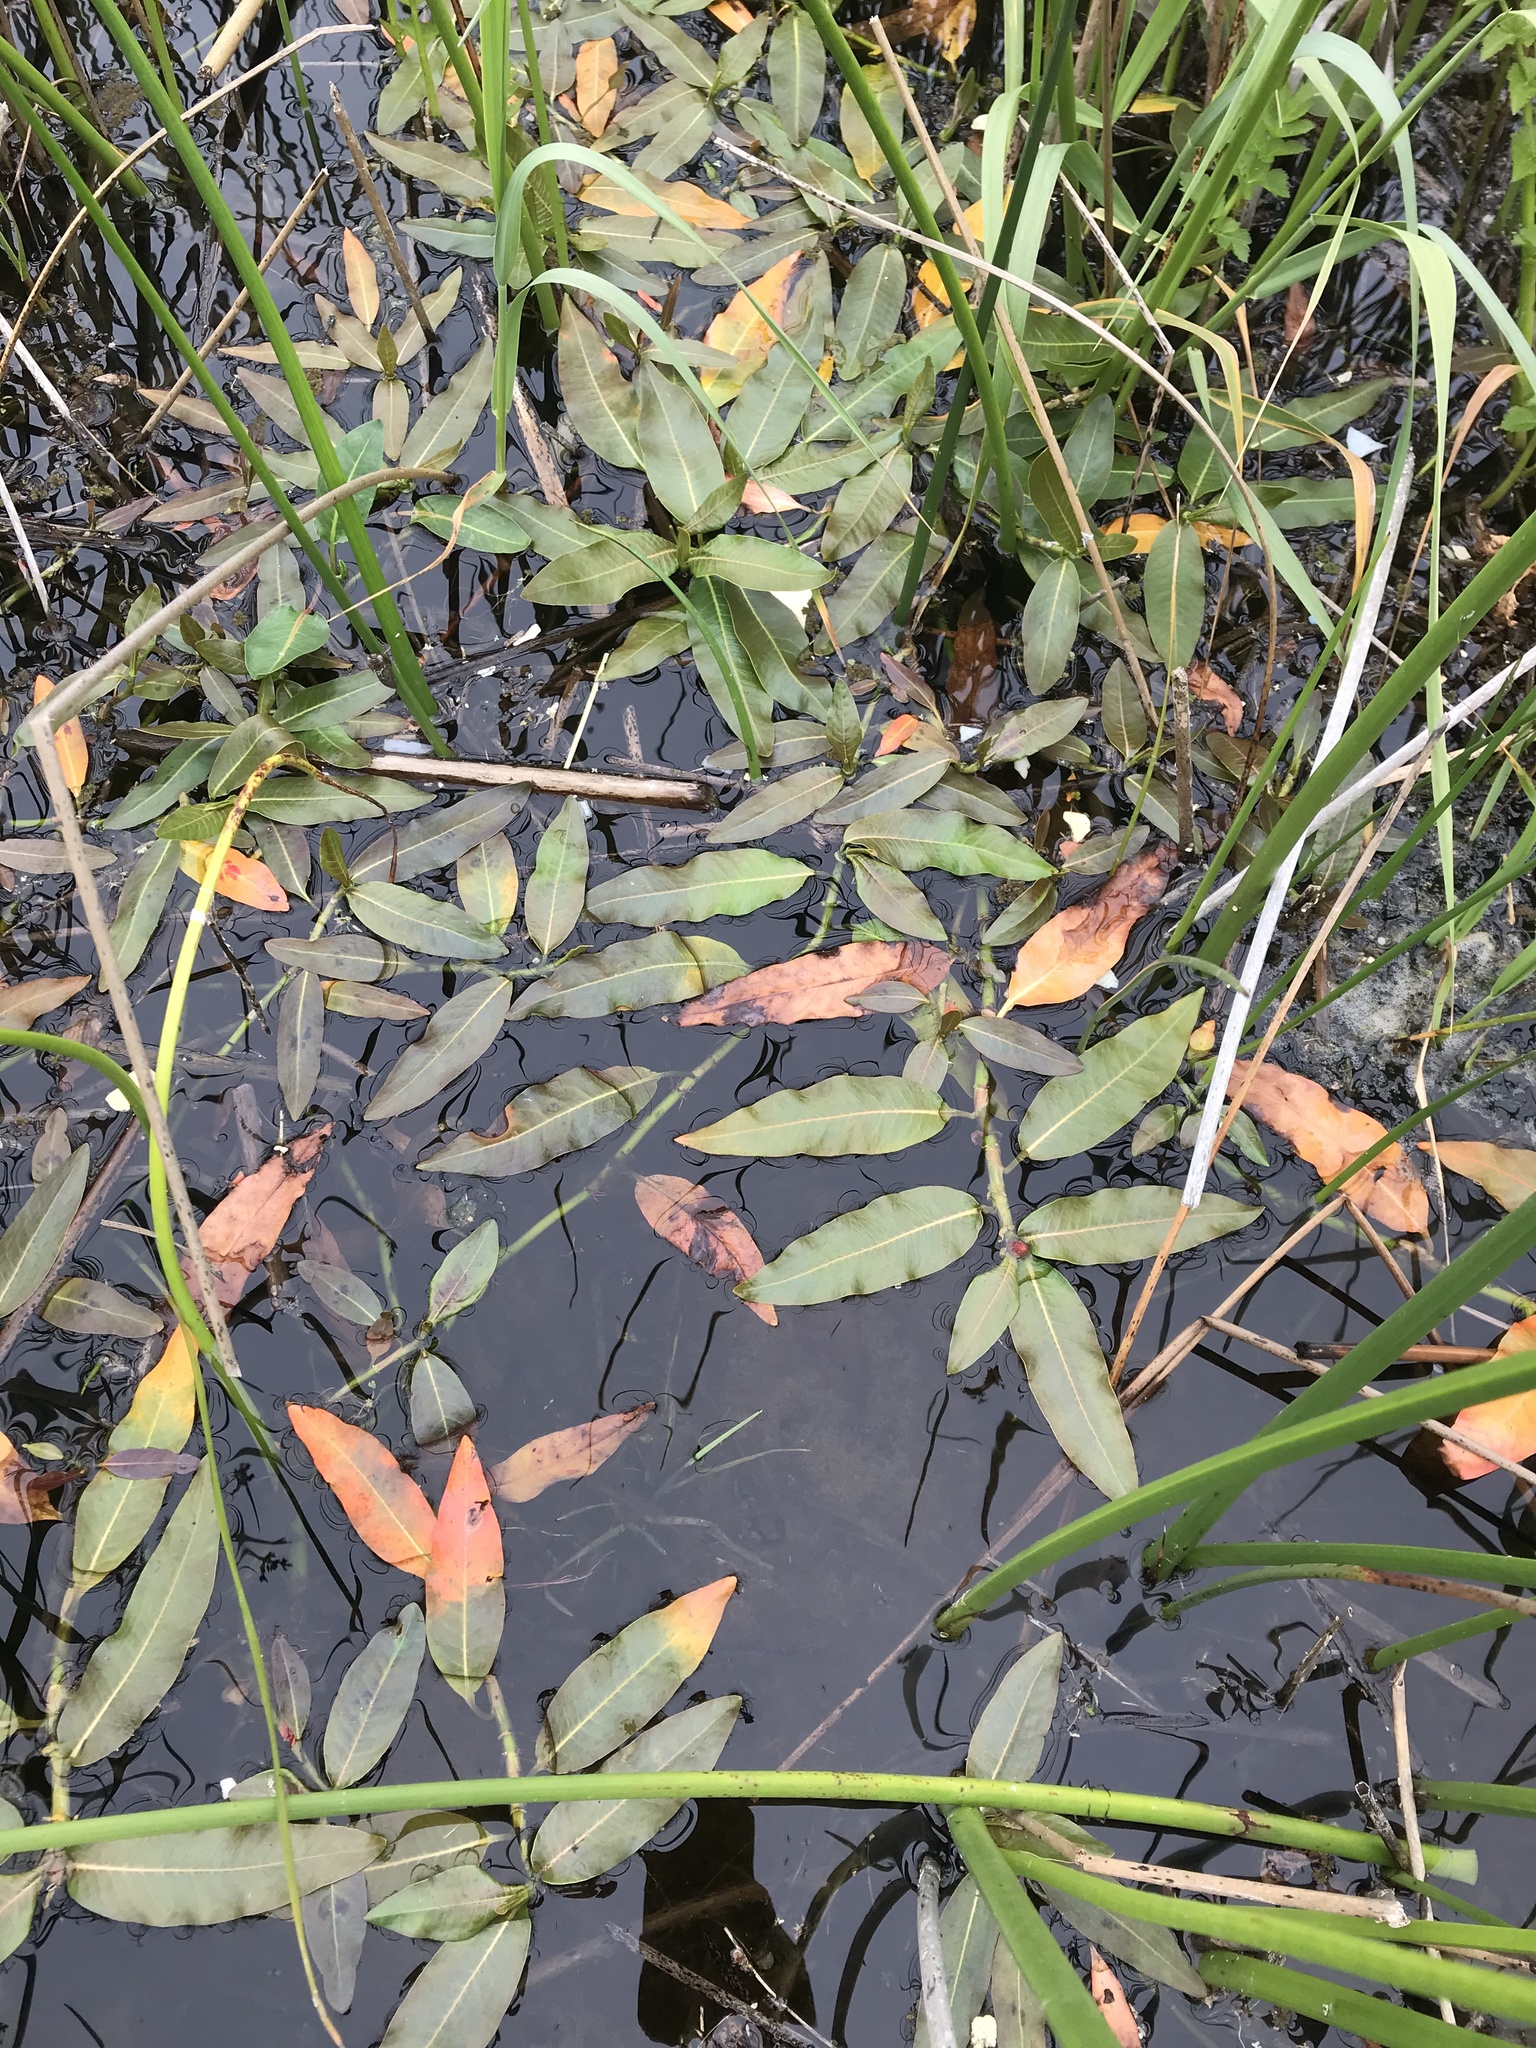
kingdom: Plantae
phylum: Tracheophyta
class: Magnoliopsida
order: Caryophyllales
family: Polygonaceae
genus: Persicaria
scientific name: Persicaria amphibia
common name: Amphibious bistort
